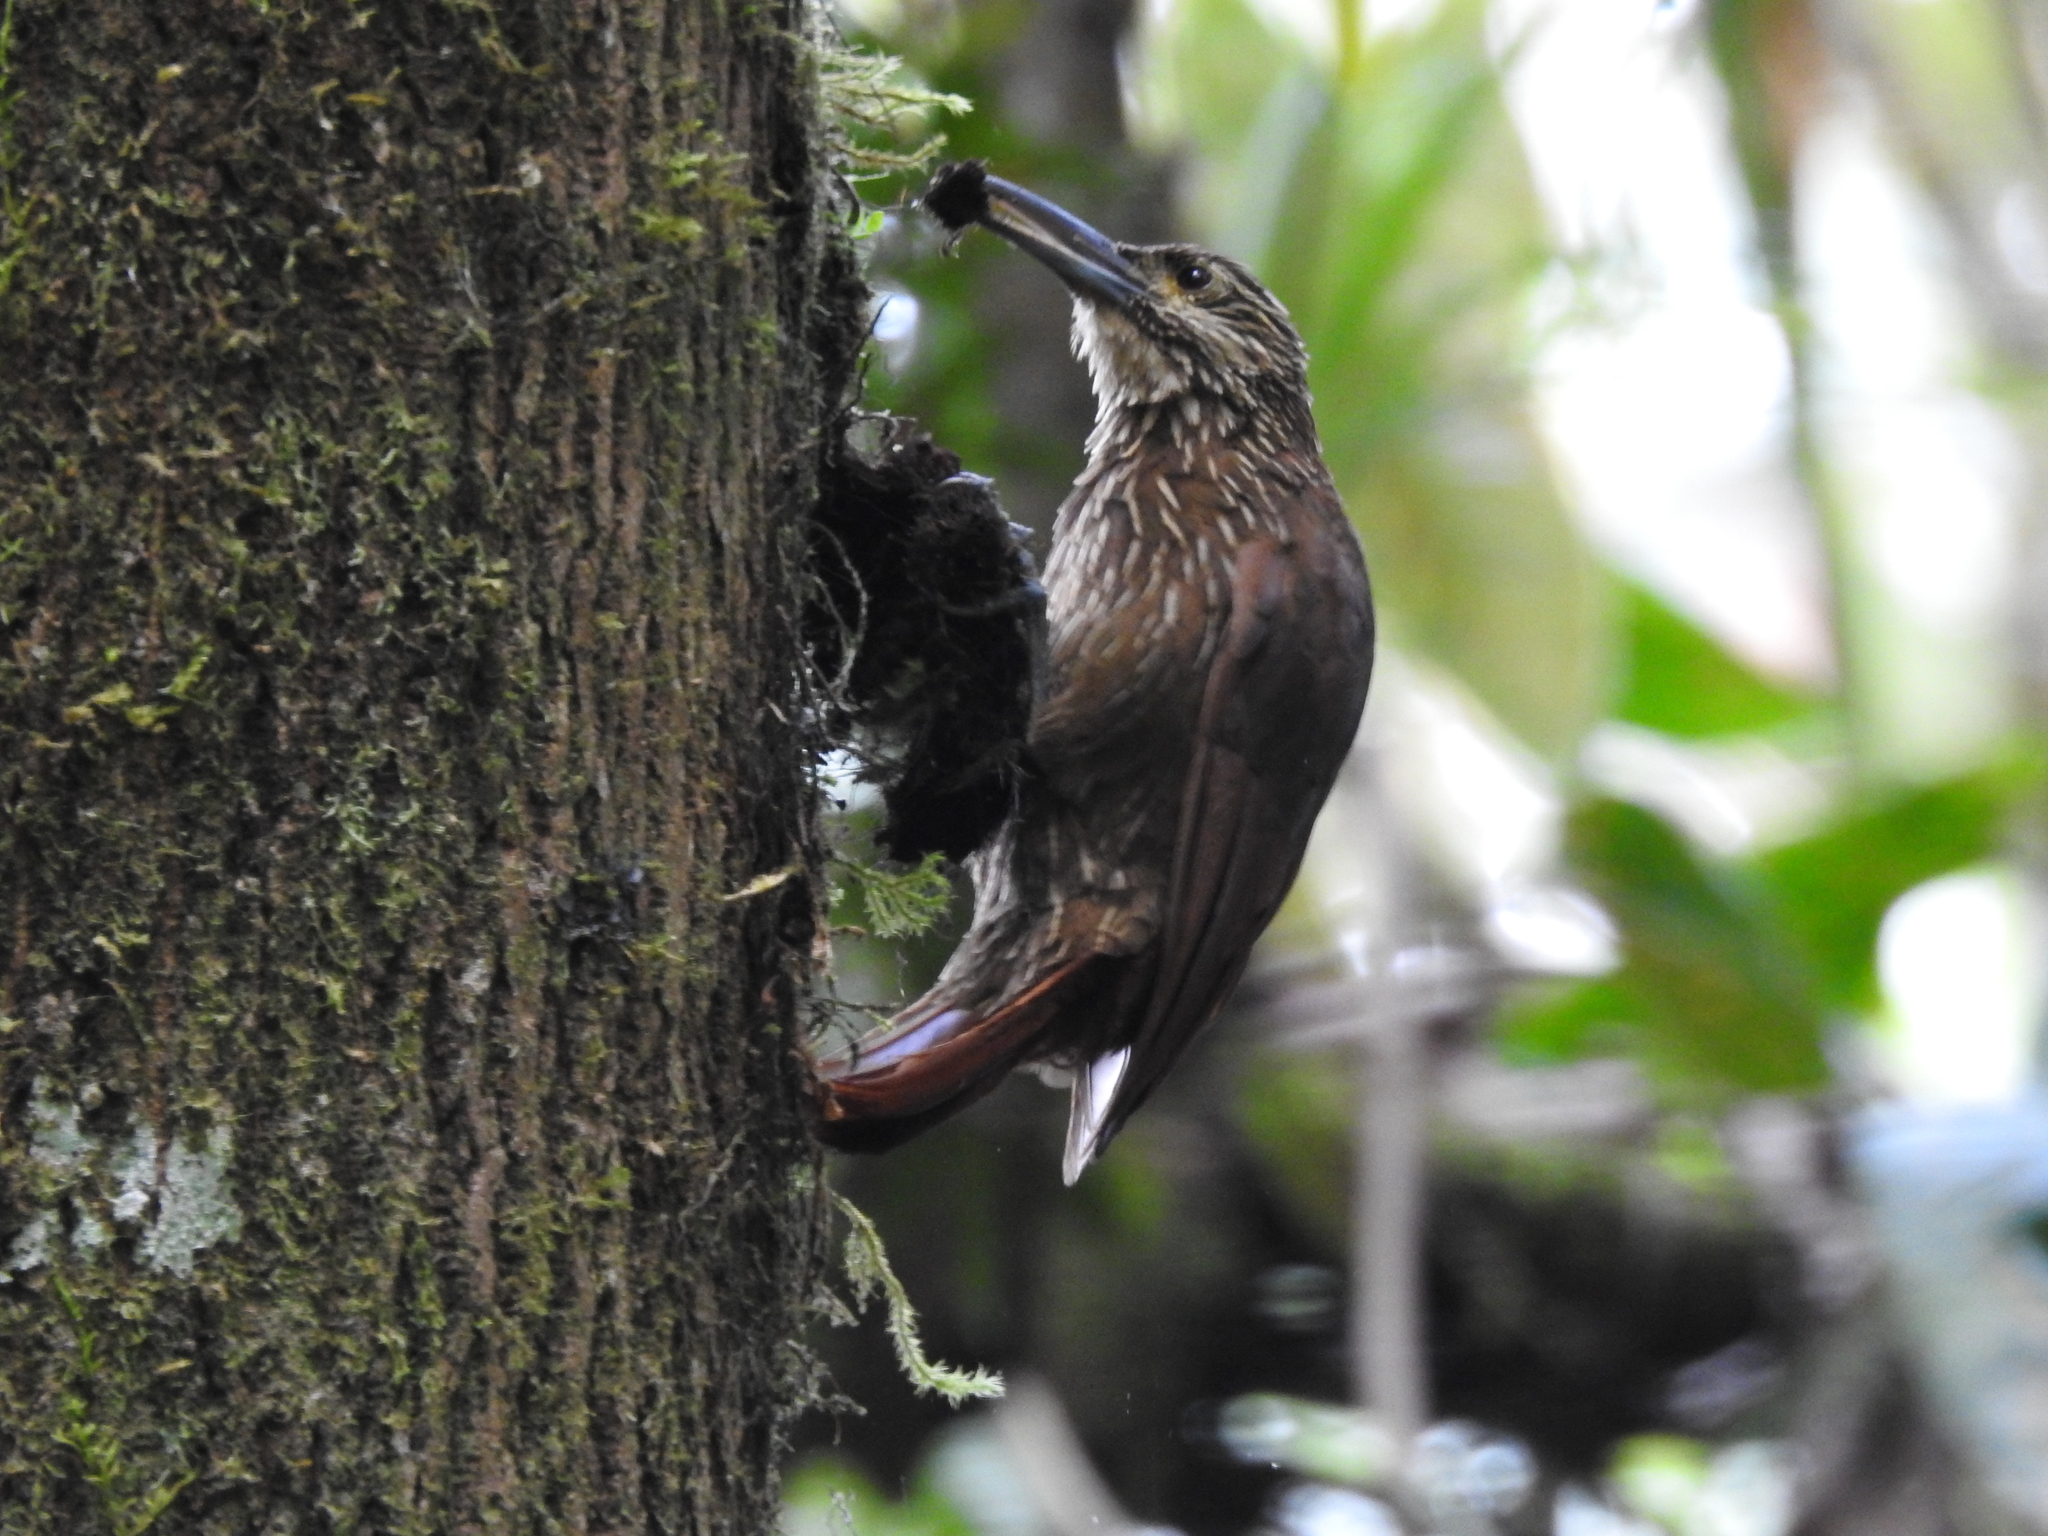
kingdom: Animalia
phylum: Chordata
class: Aves
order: Passeriformes
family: Furnariidae
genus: Xiphocolaptes
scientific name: Xiphocolaptes promeropirhynchus
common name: Strong-billed woodcreeper
